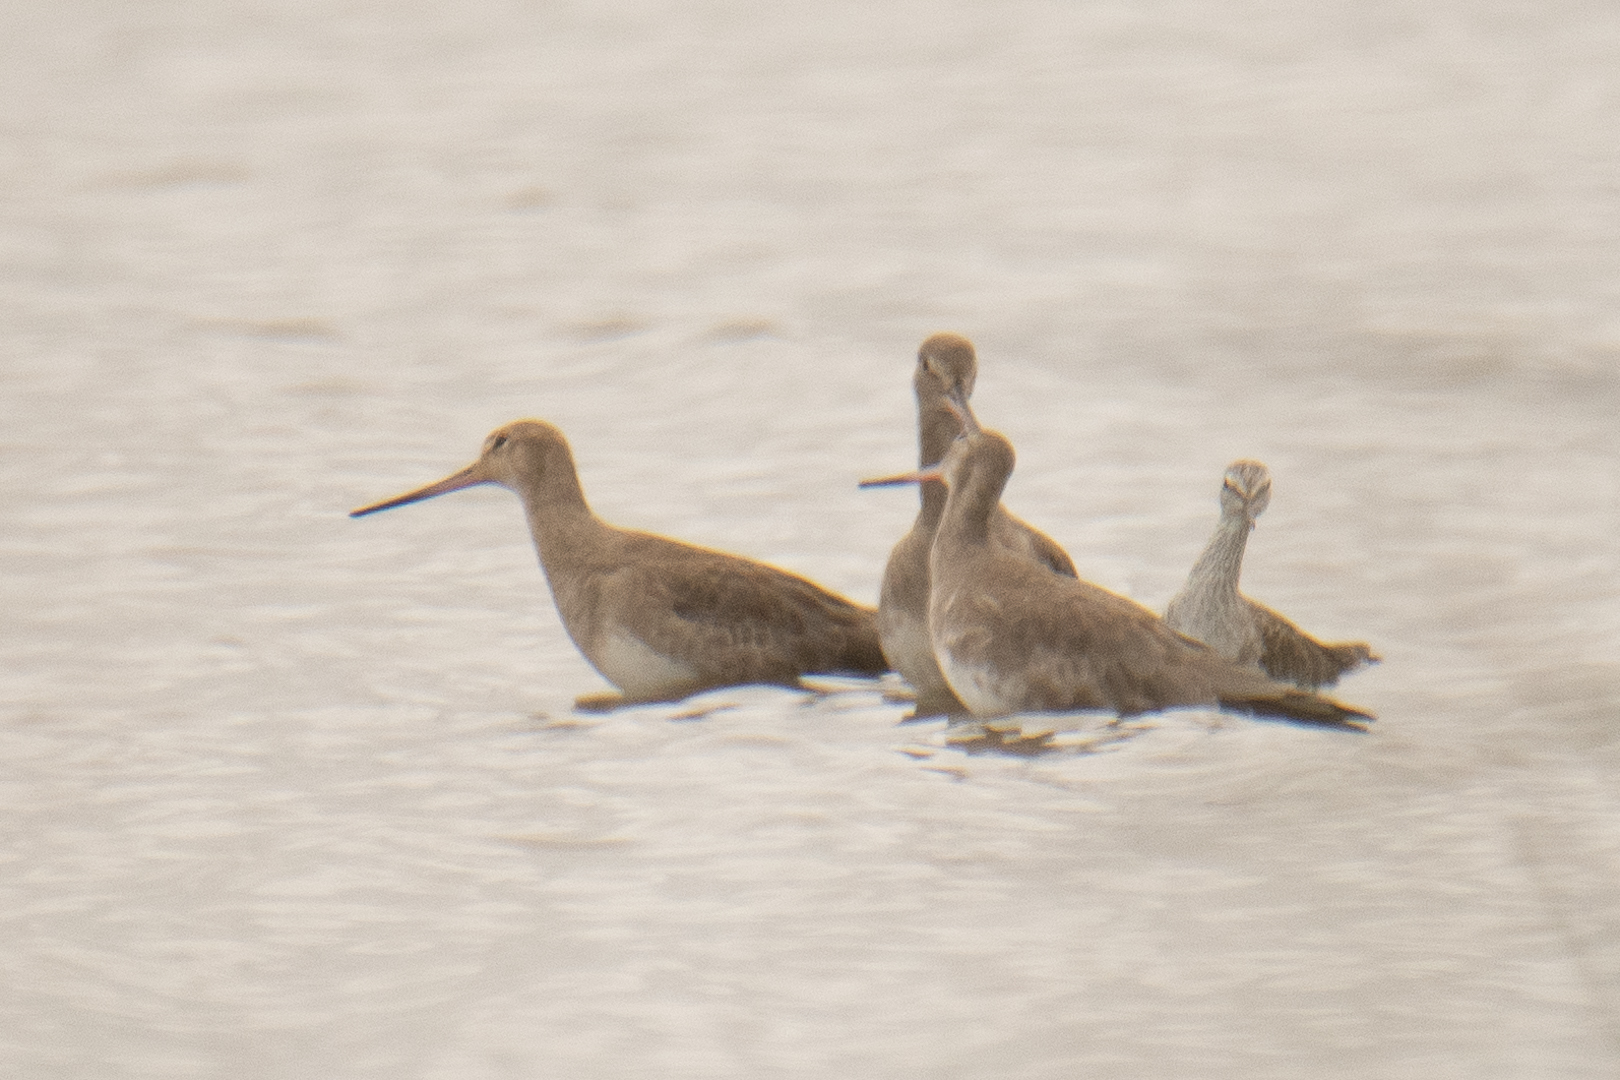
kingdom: Animalia
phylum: Chordata
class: Aves
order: Charadriiformes
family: Scolopacidae
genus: Limosa
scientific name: Limosa haemastica
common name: Hudsonian godwit
